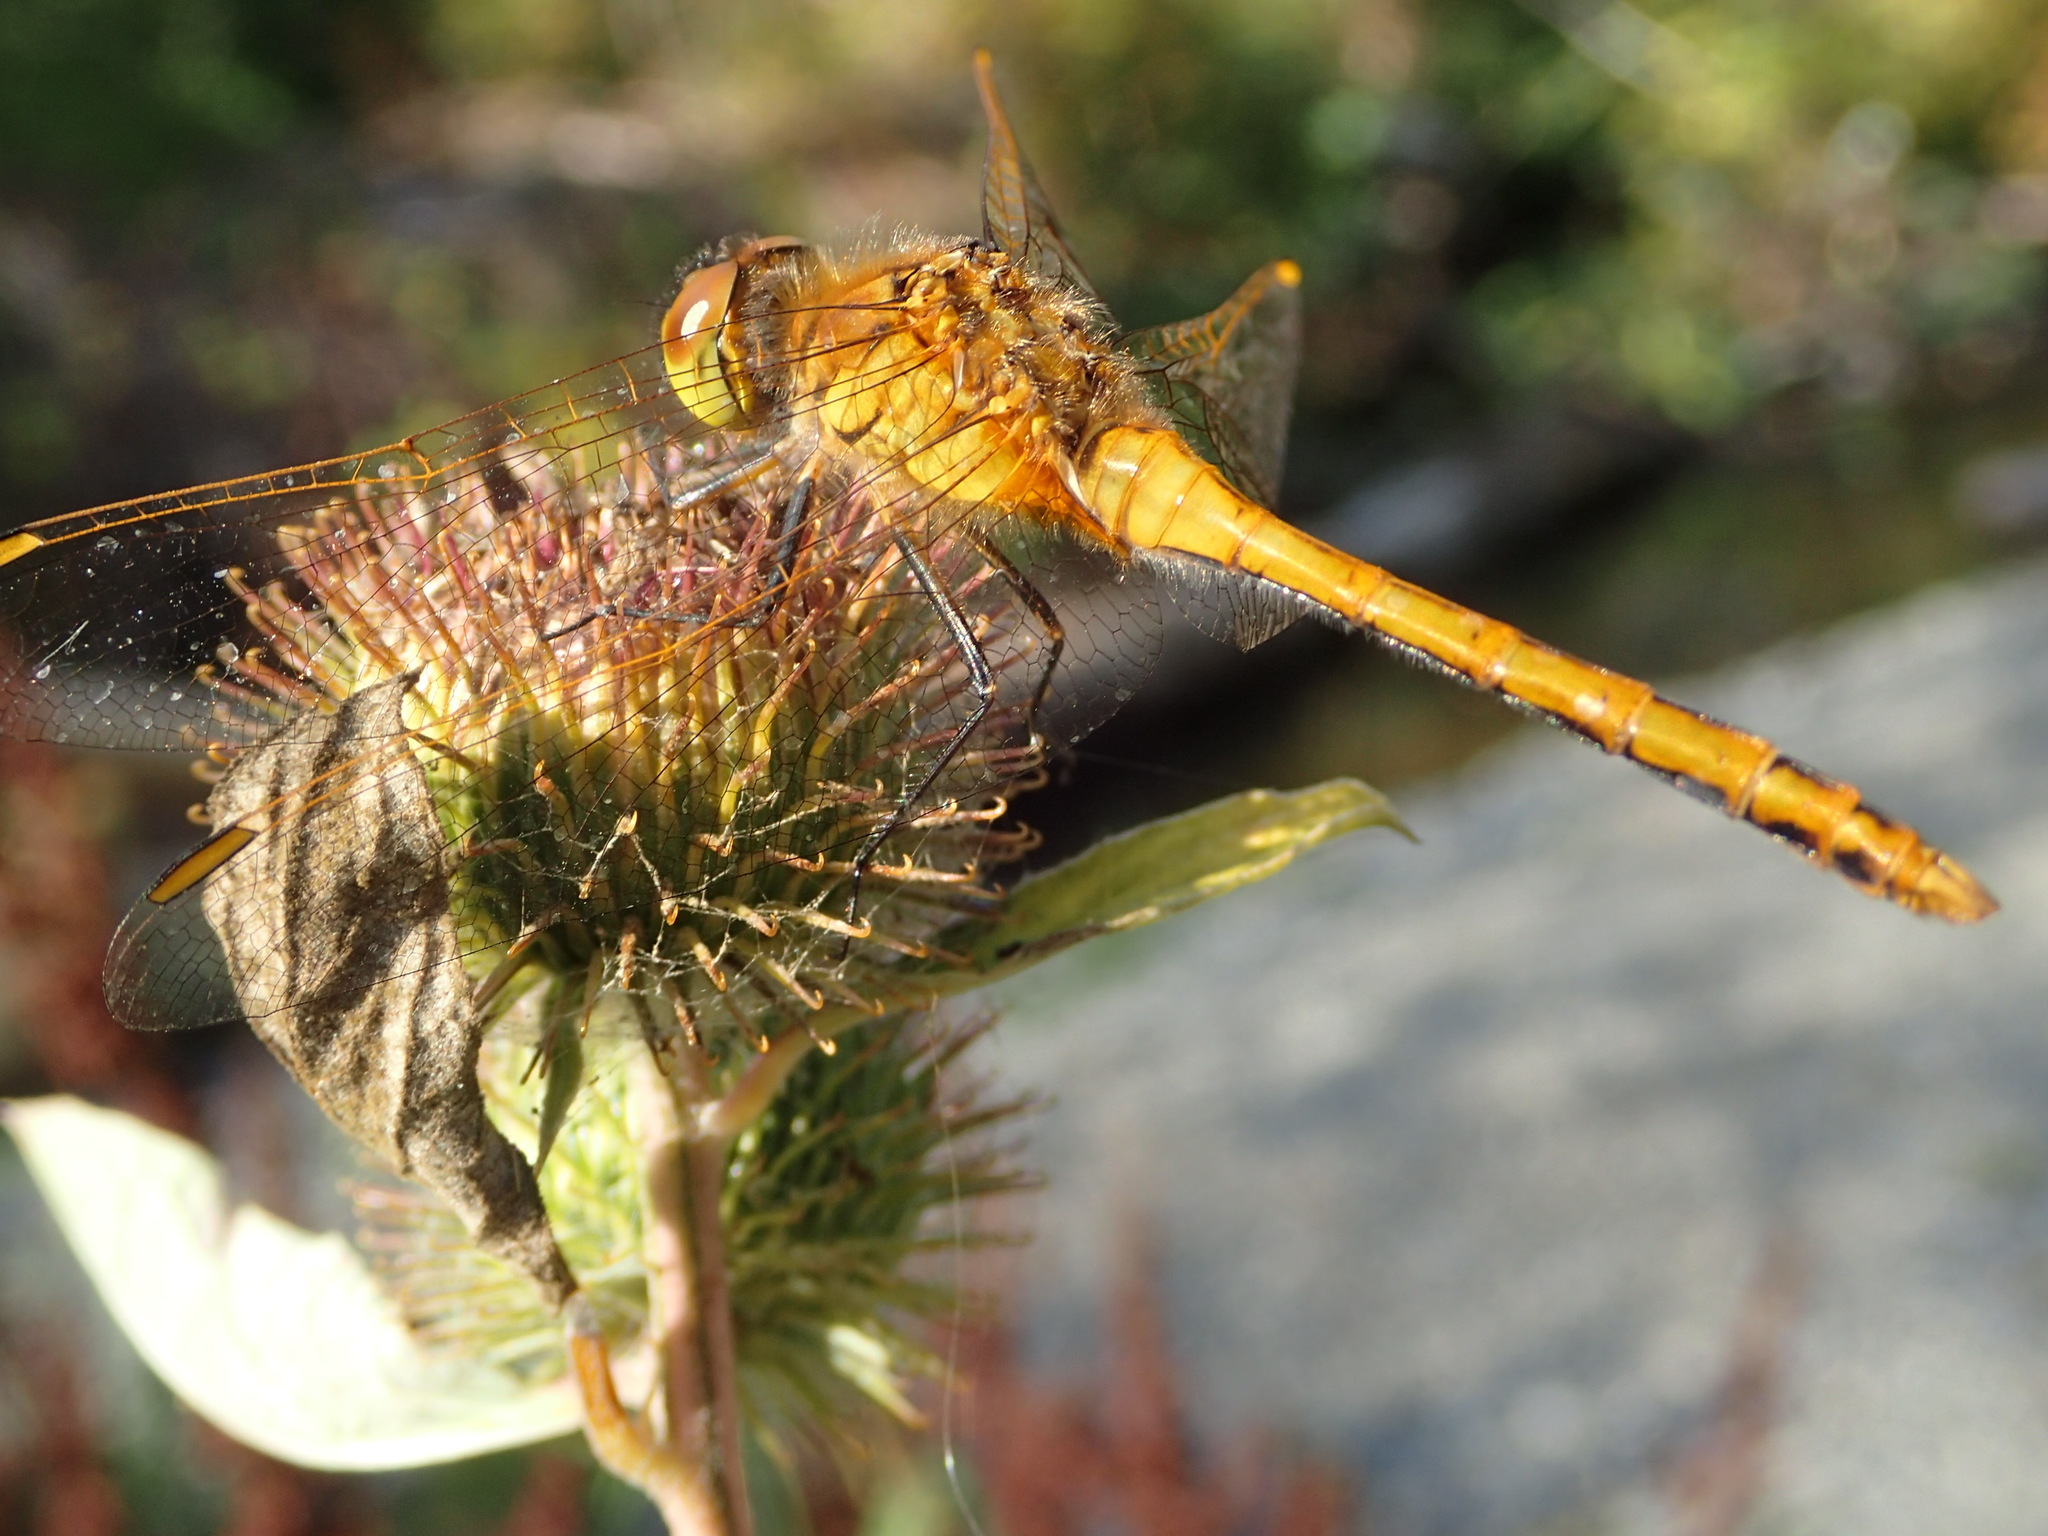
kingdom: Animalia
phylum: Arthropoda
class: Insecta
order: Odonata
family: Libellulidae
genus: Sympetrum
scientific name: Sympetrum costiferum
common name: Saffron-winged meadowhawk
